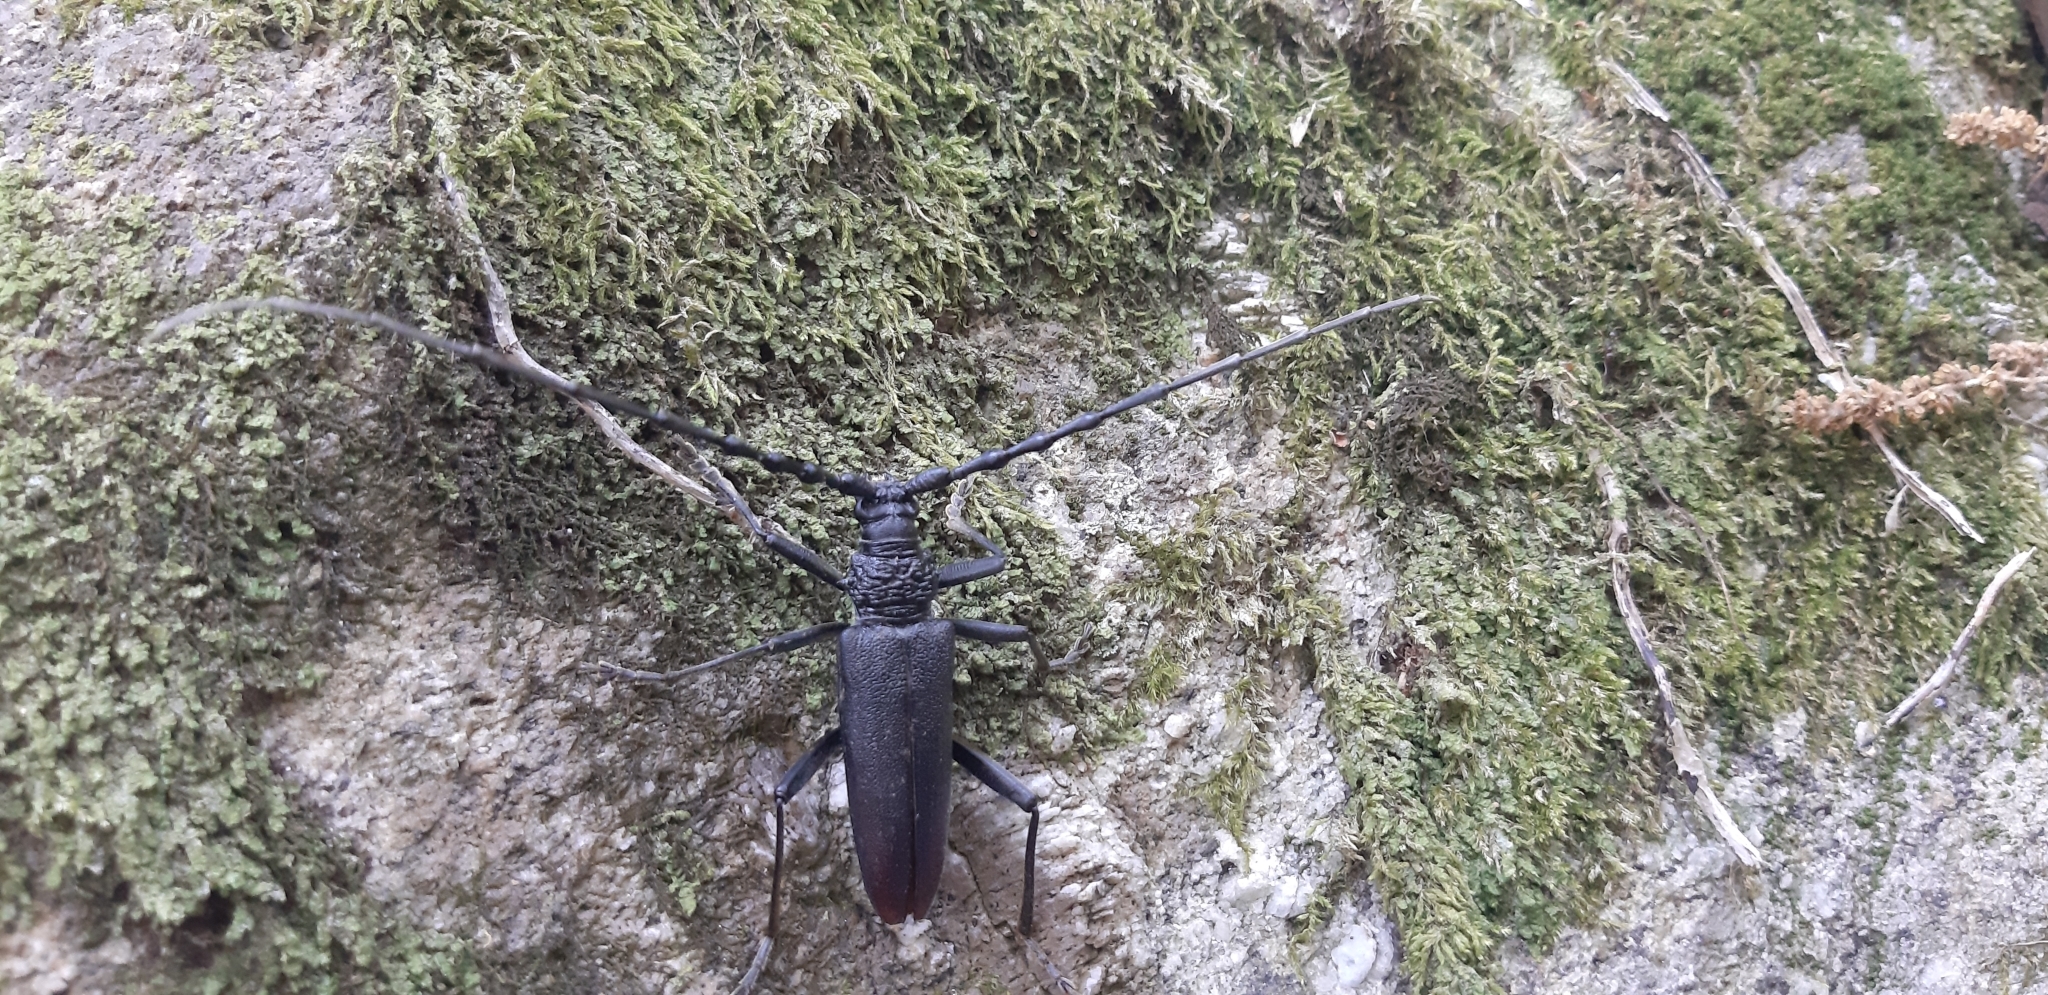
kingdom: Animalia
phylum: Arthropoda
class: Insecta
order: Coleoptera
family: Cerambycidae
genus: Cerambyx
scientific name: Cerambyx cerdo
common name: Cerambyx longicorn
